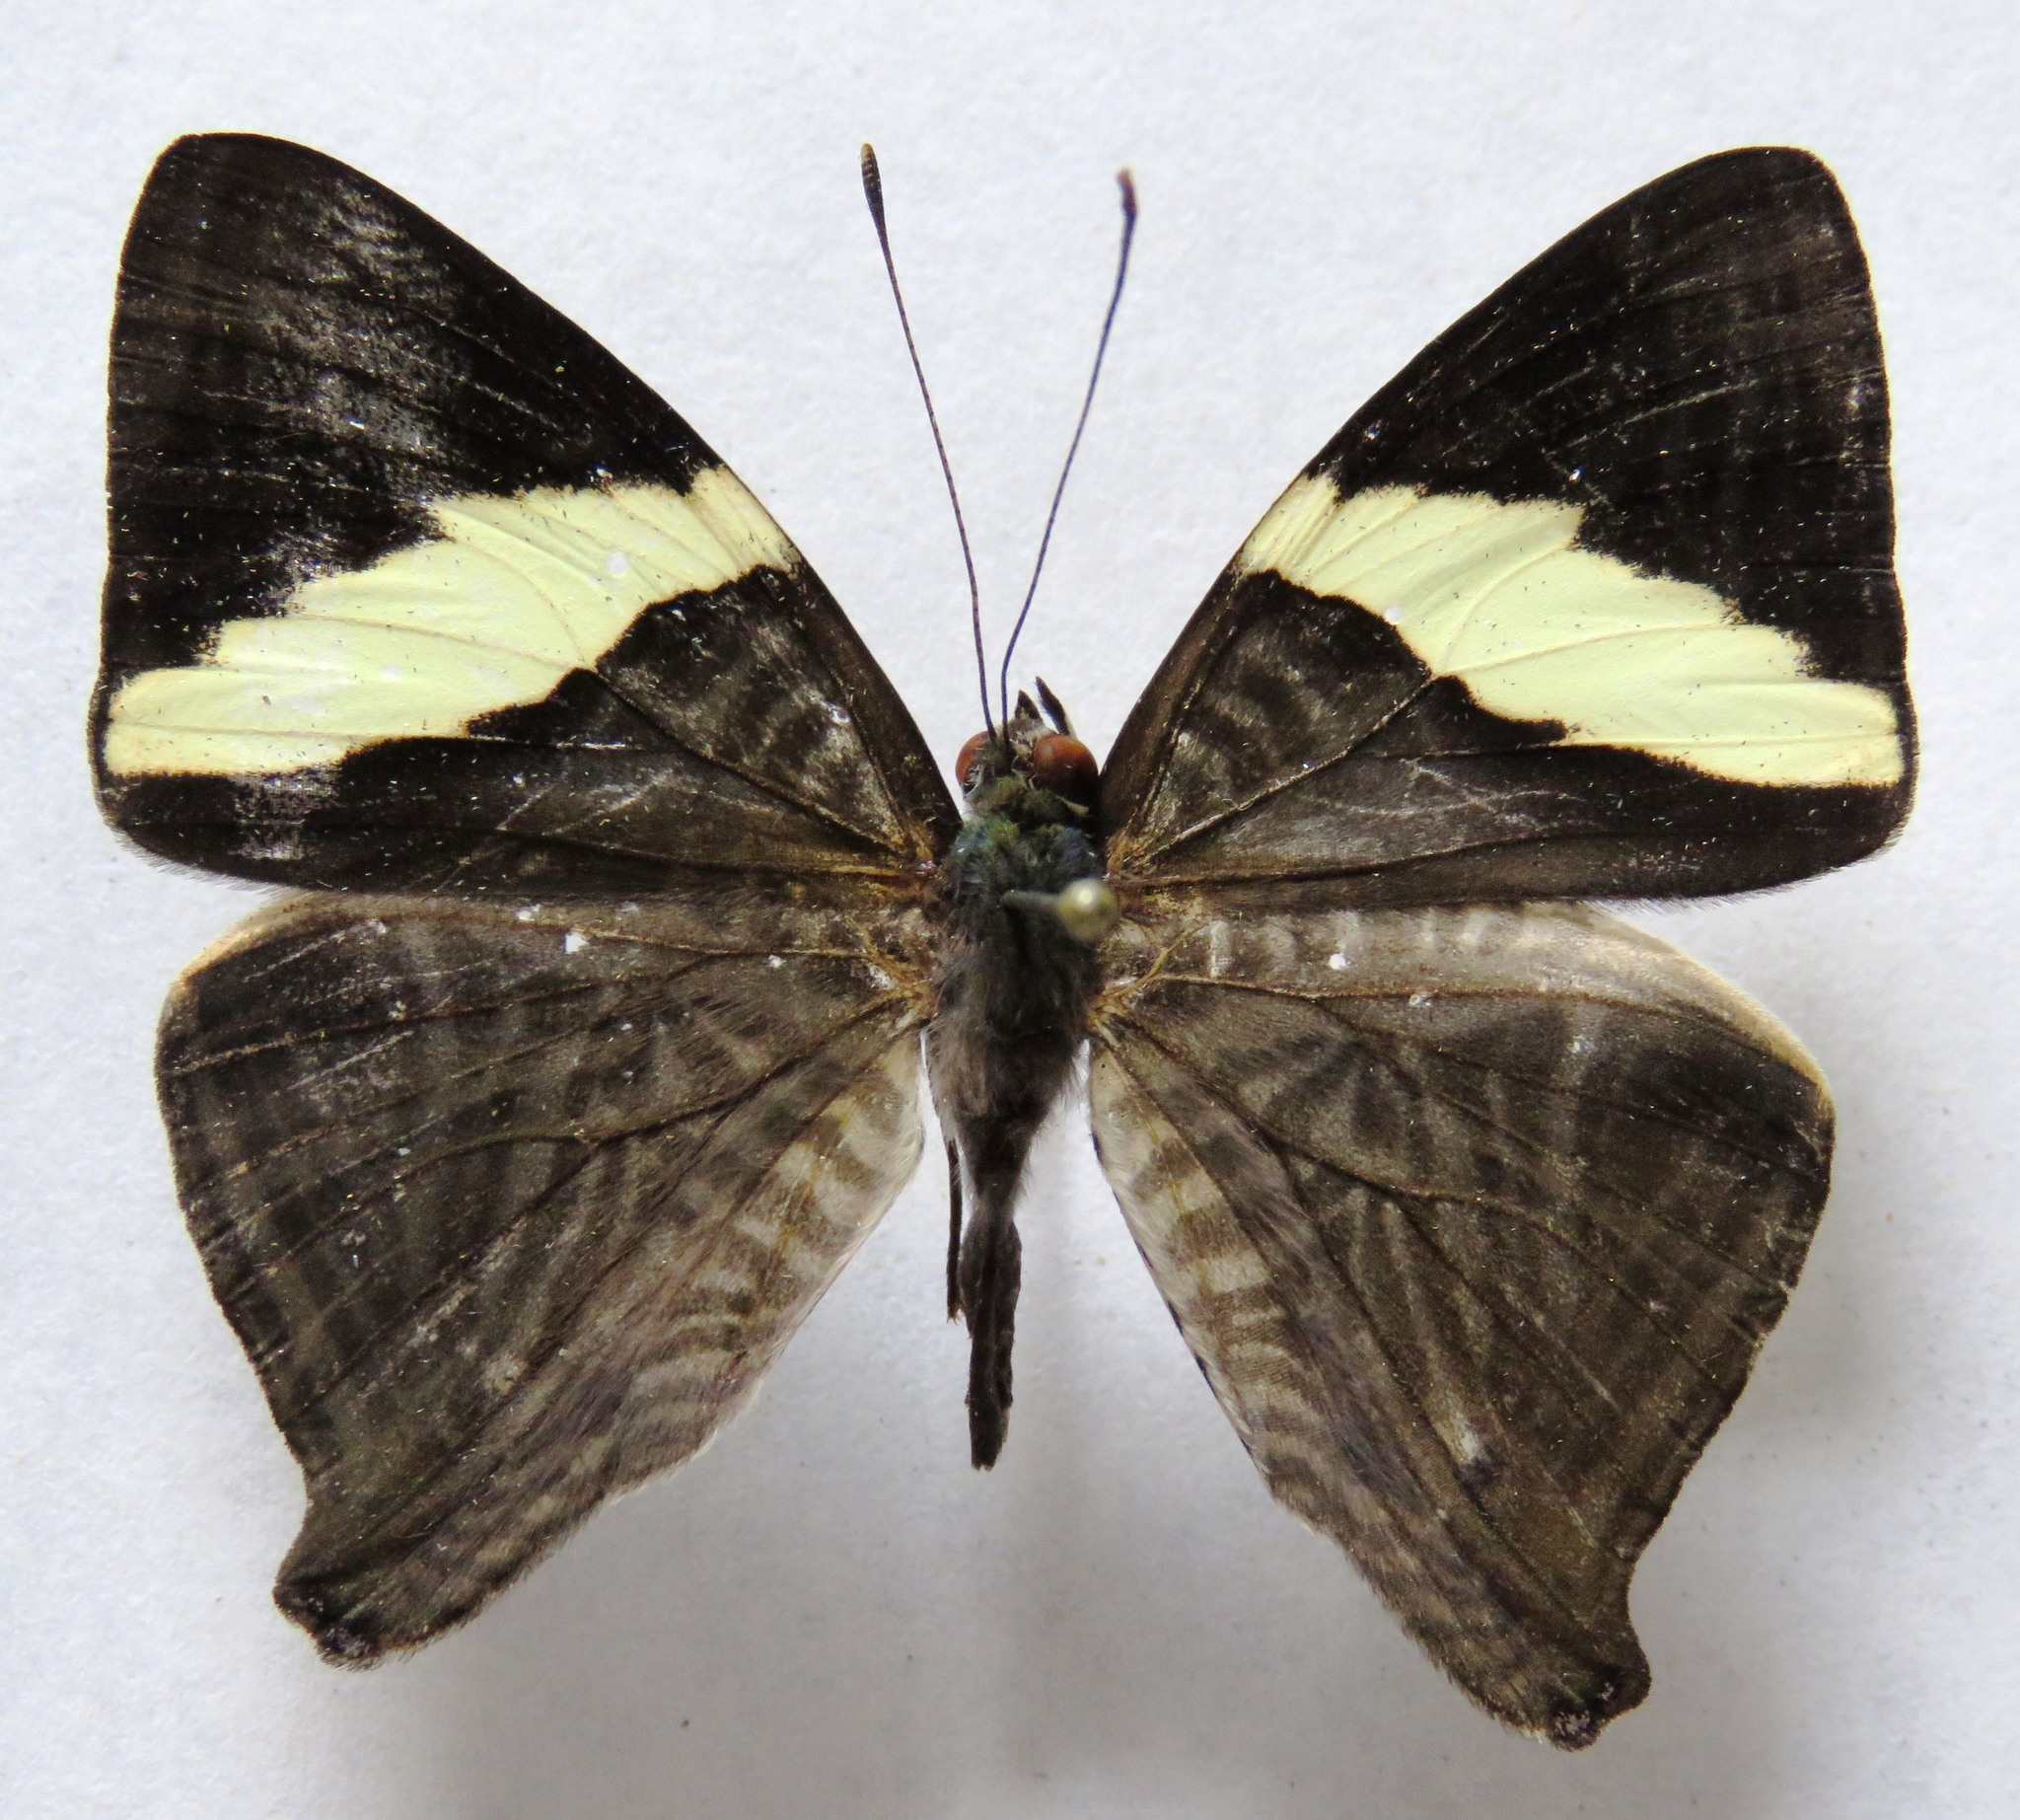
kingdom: Animalia
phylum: Arthropoda
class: Insecta
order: Lepidoptera
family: Nymphalidae
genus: Colobura
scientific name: Colobura dirce
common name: Dirce beauty
